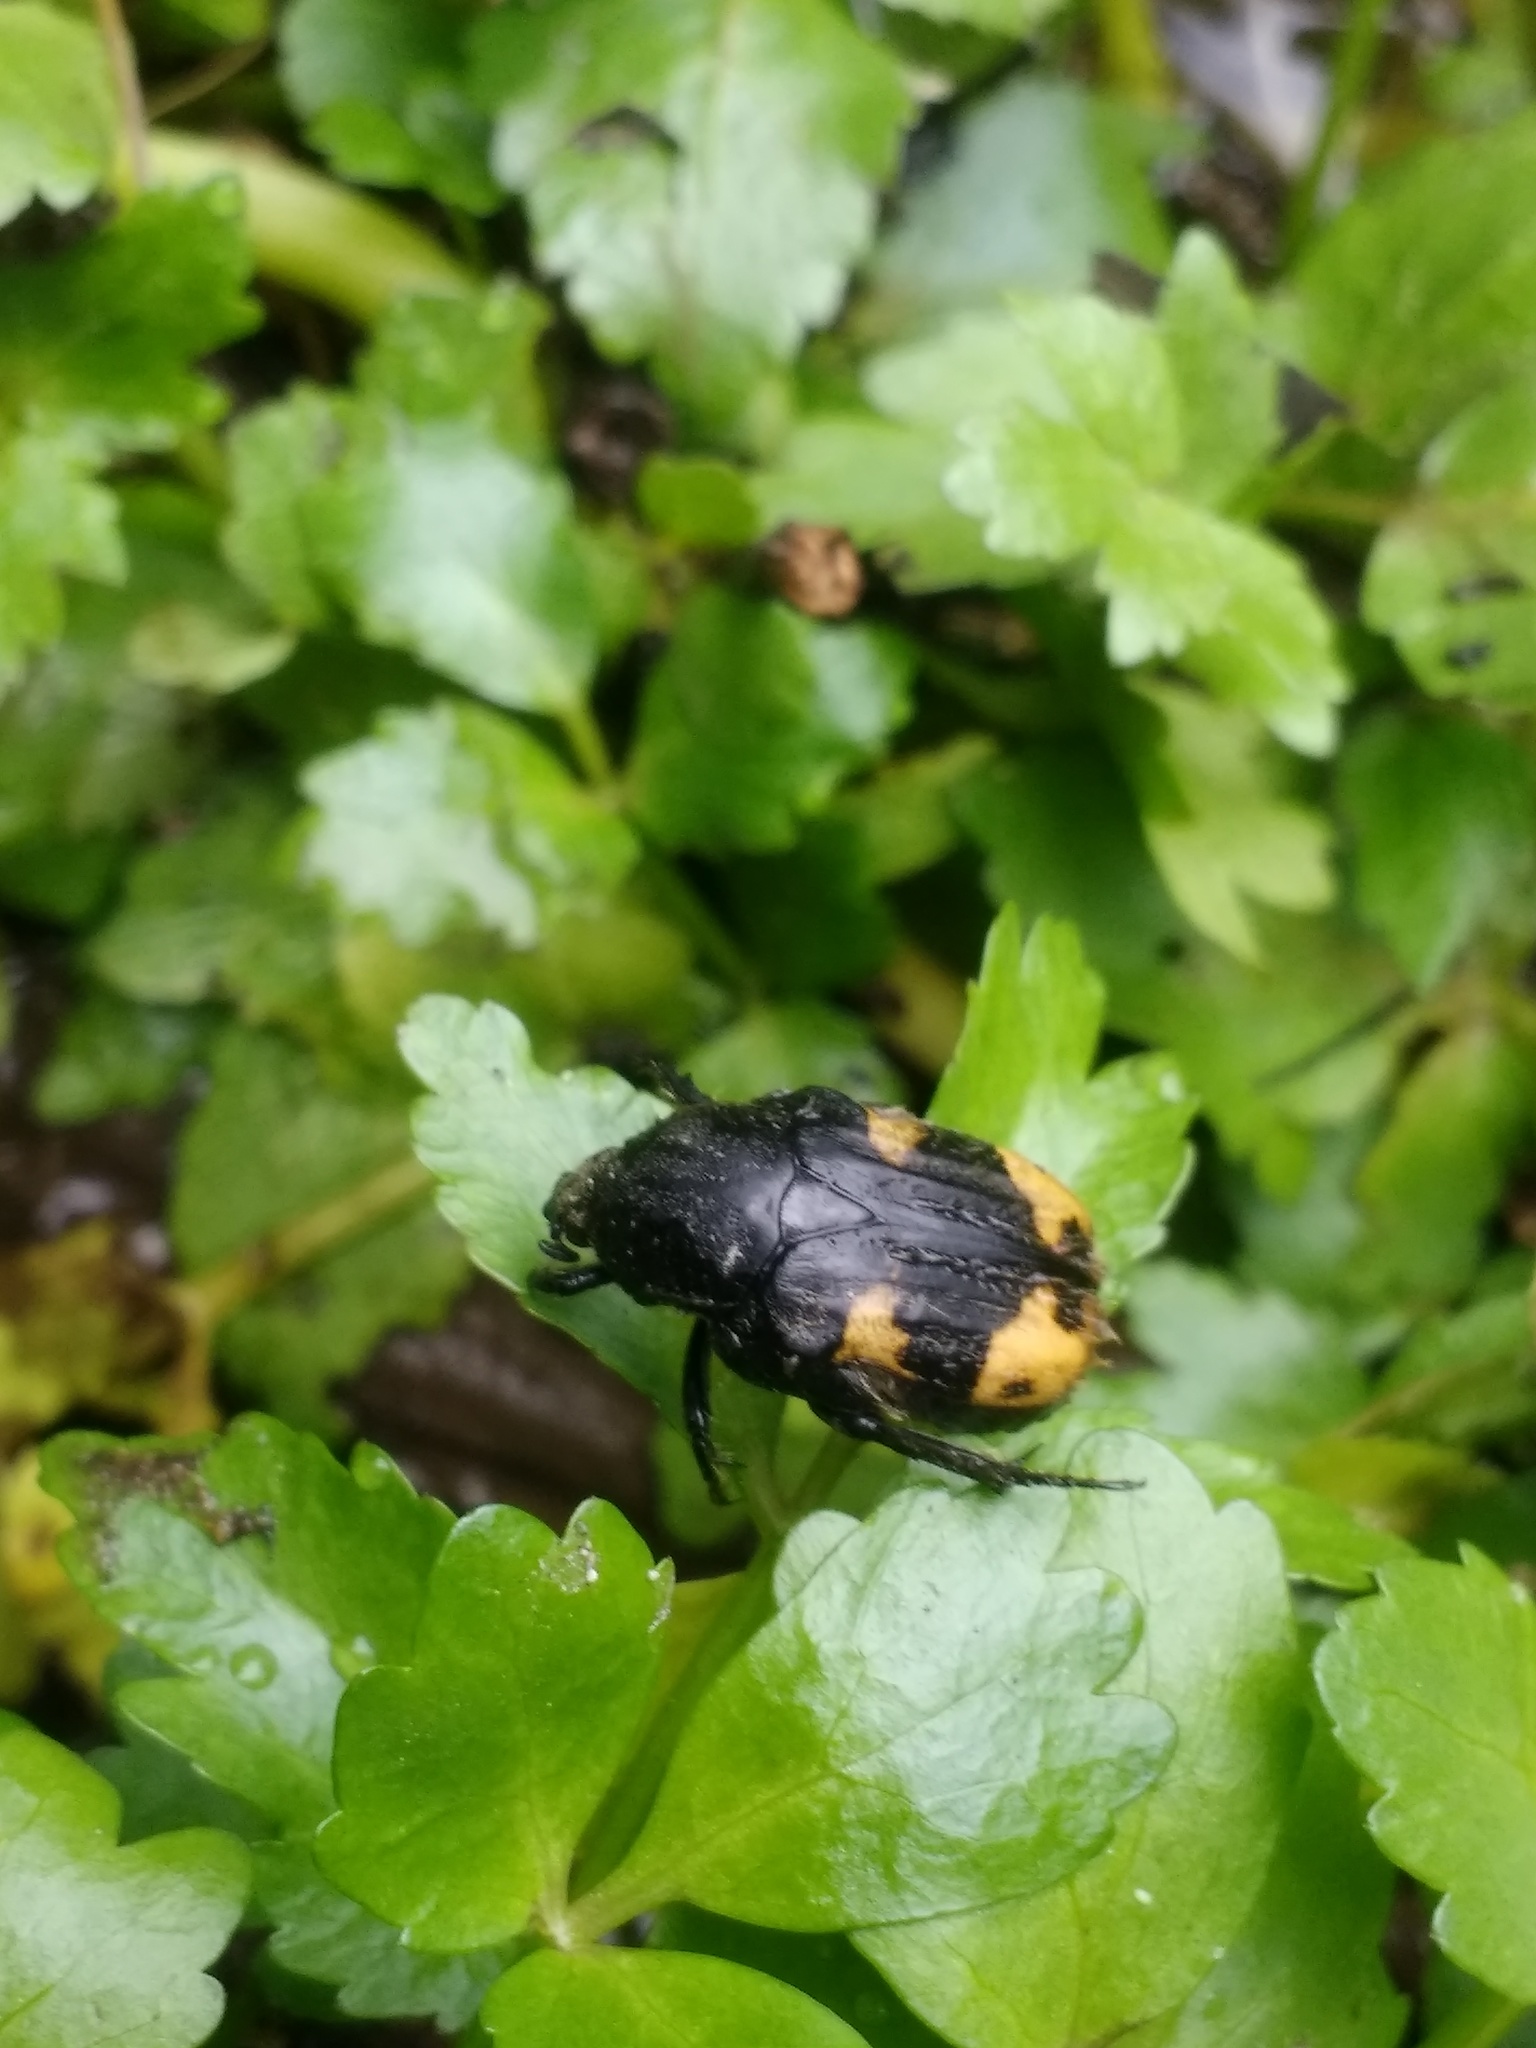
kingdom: Animalia
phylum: Arthropoda
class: Insecta
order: Coleoptera
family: Scarabaeidae
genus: Euphoria
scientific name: Euphoria basalis
